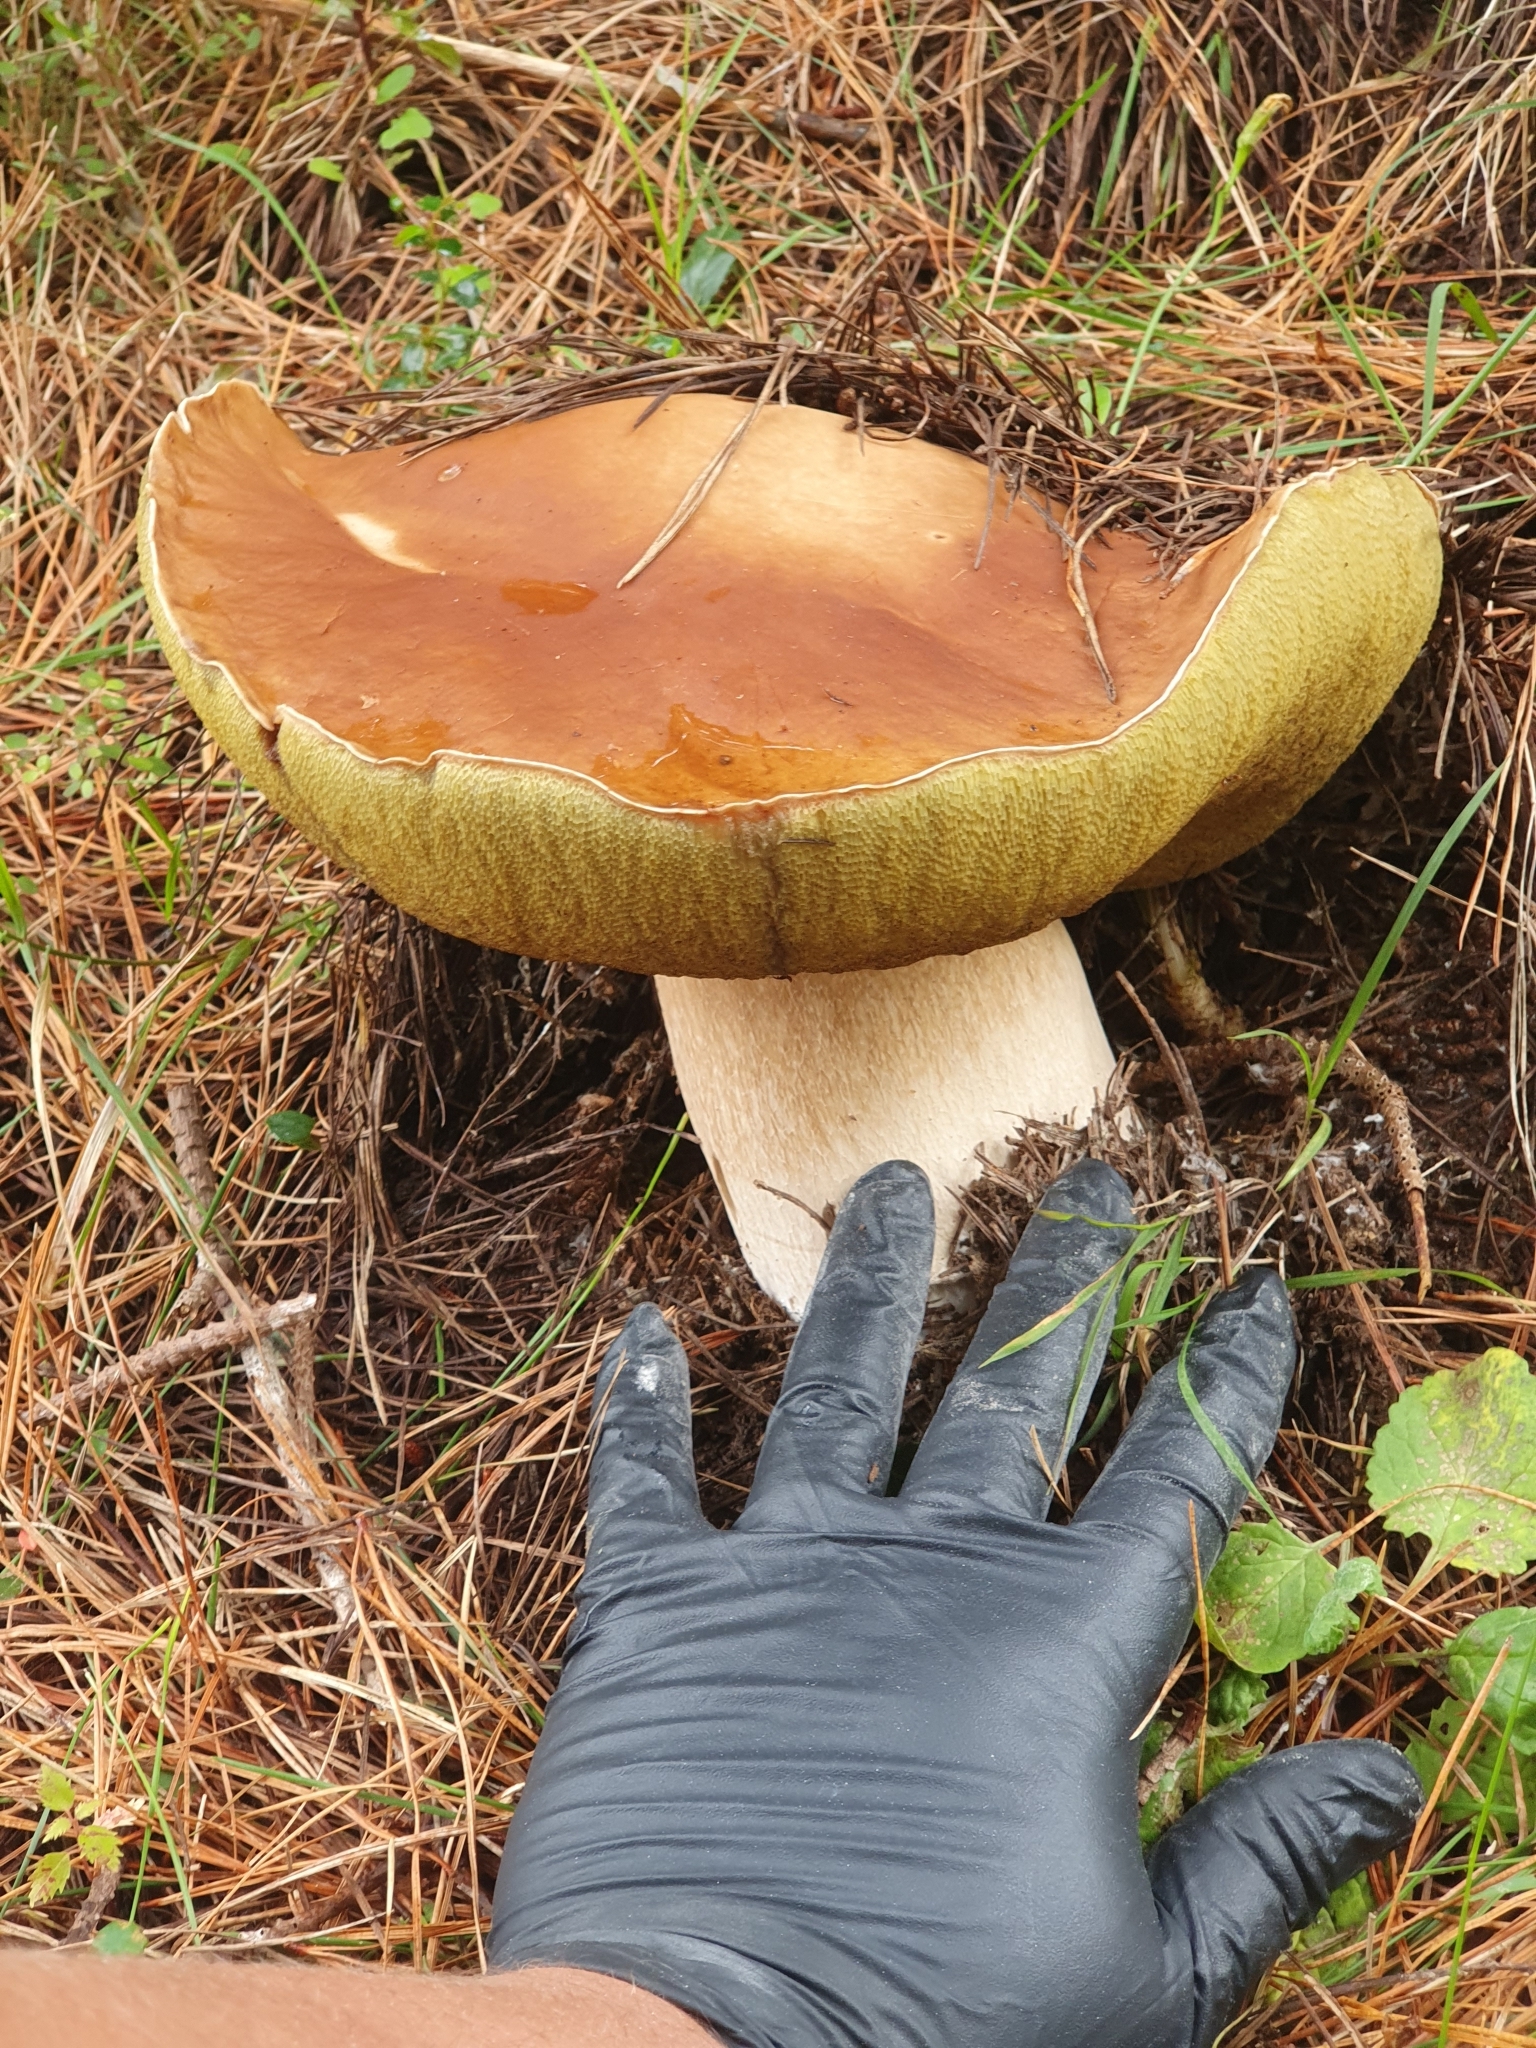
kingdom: Fungi
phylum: Basidiomycota
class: Agaricomycetes
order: Boletales
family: Boletaceae
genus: Boletus
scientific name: Boletus edulis
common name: Cep
